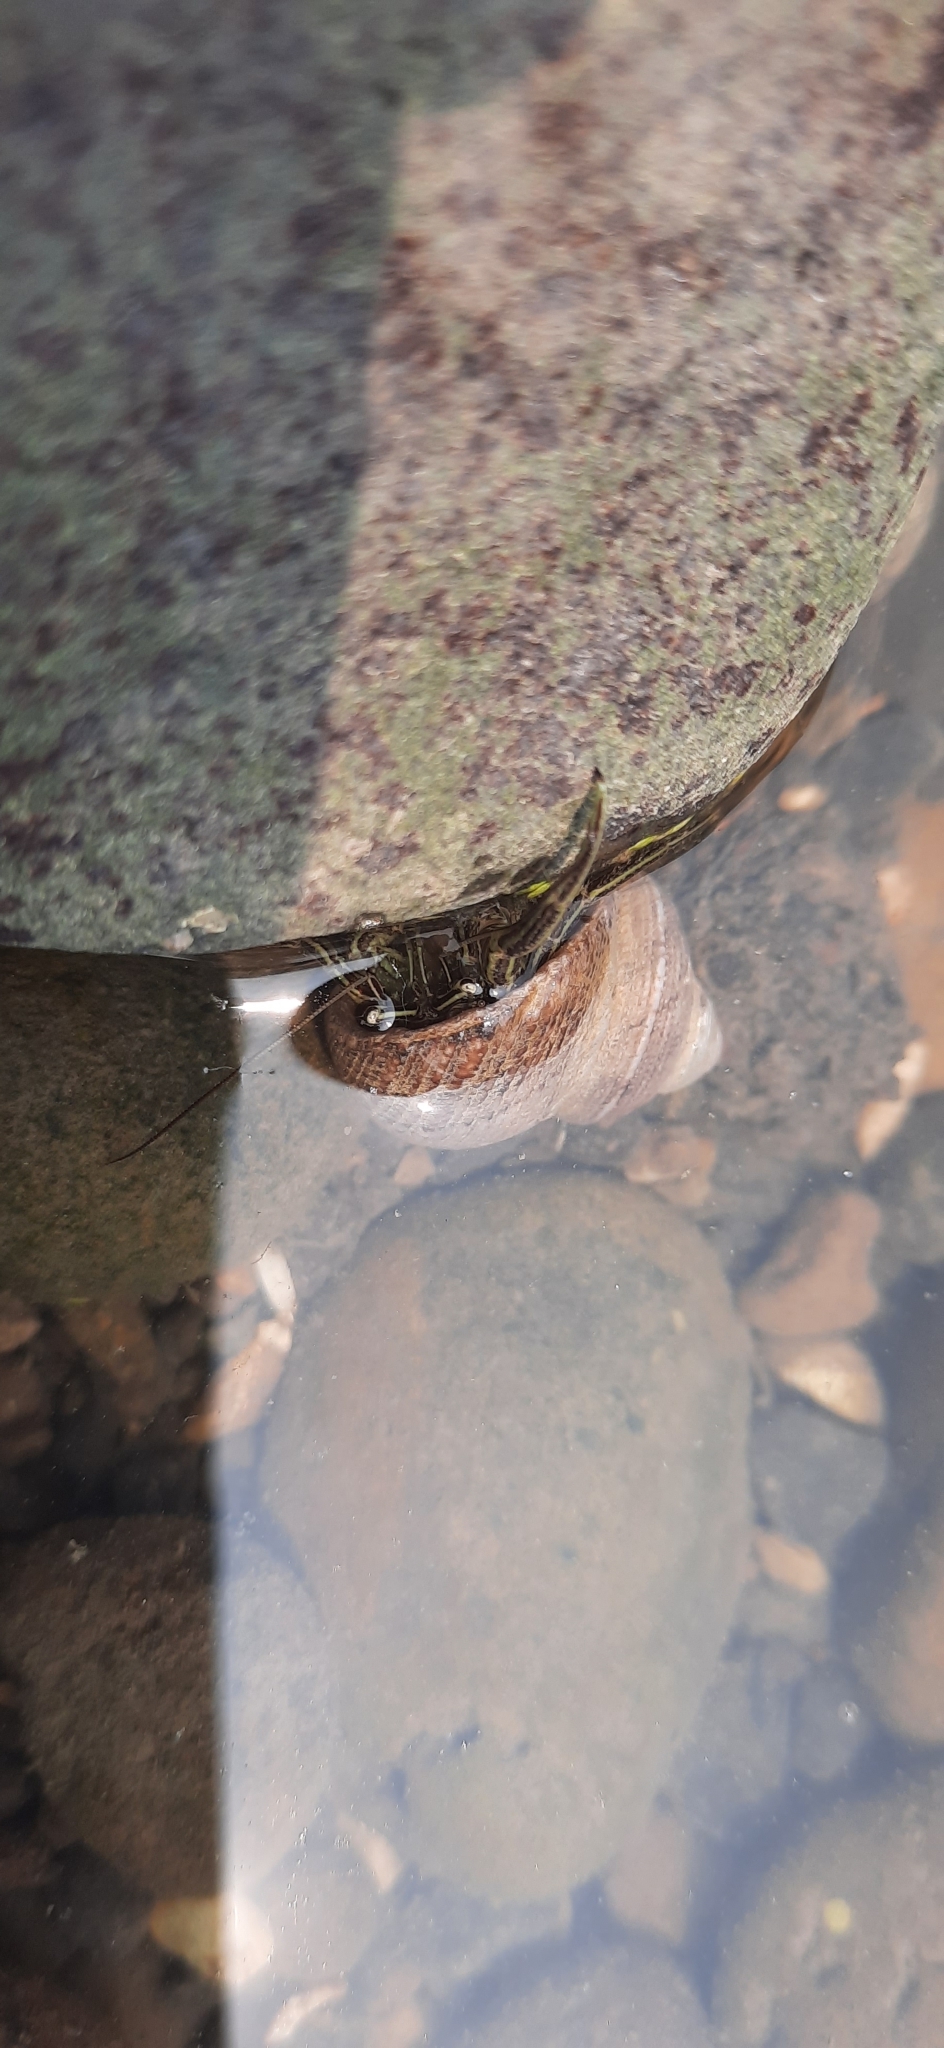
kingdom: Animalia
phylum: Arthropoda
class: Malacostraca
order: Decapoda
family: Diogenidae
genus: Clibanarius
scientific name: Clibanarius padavensis
